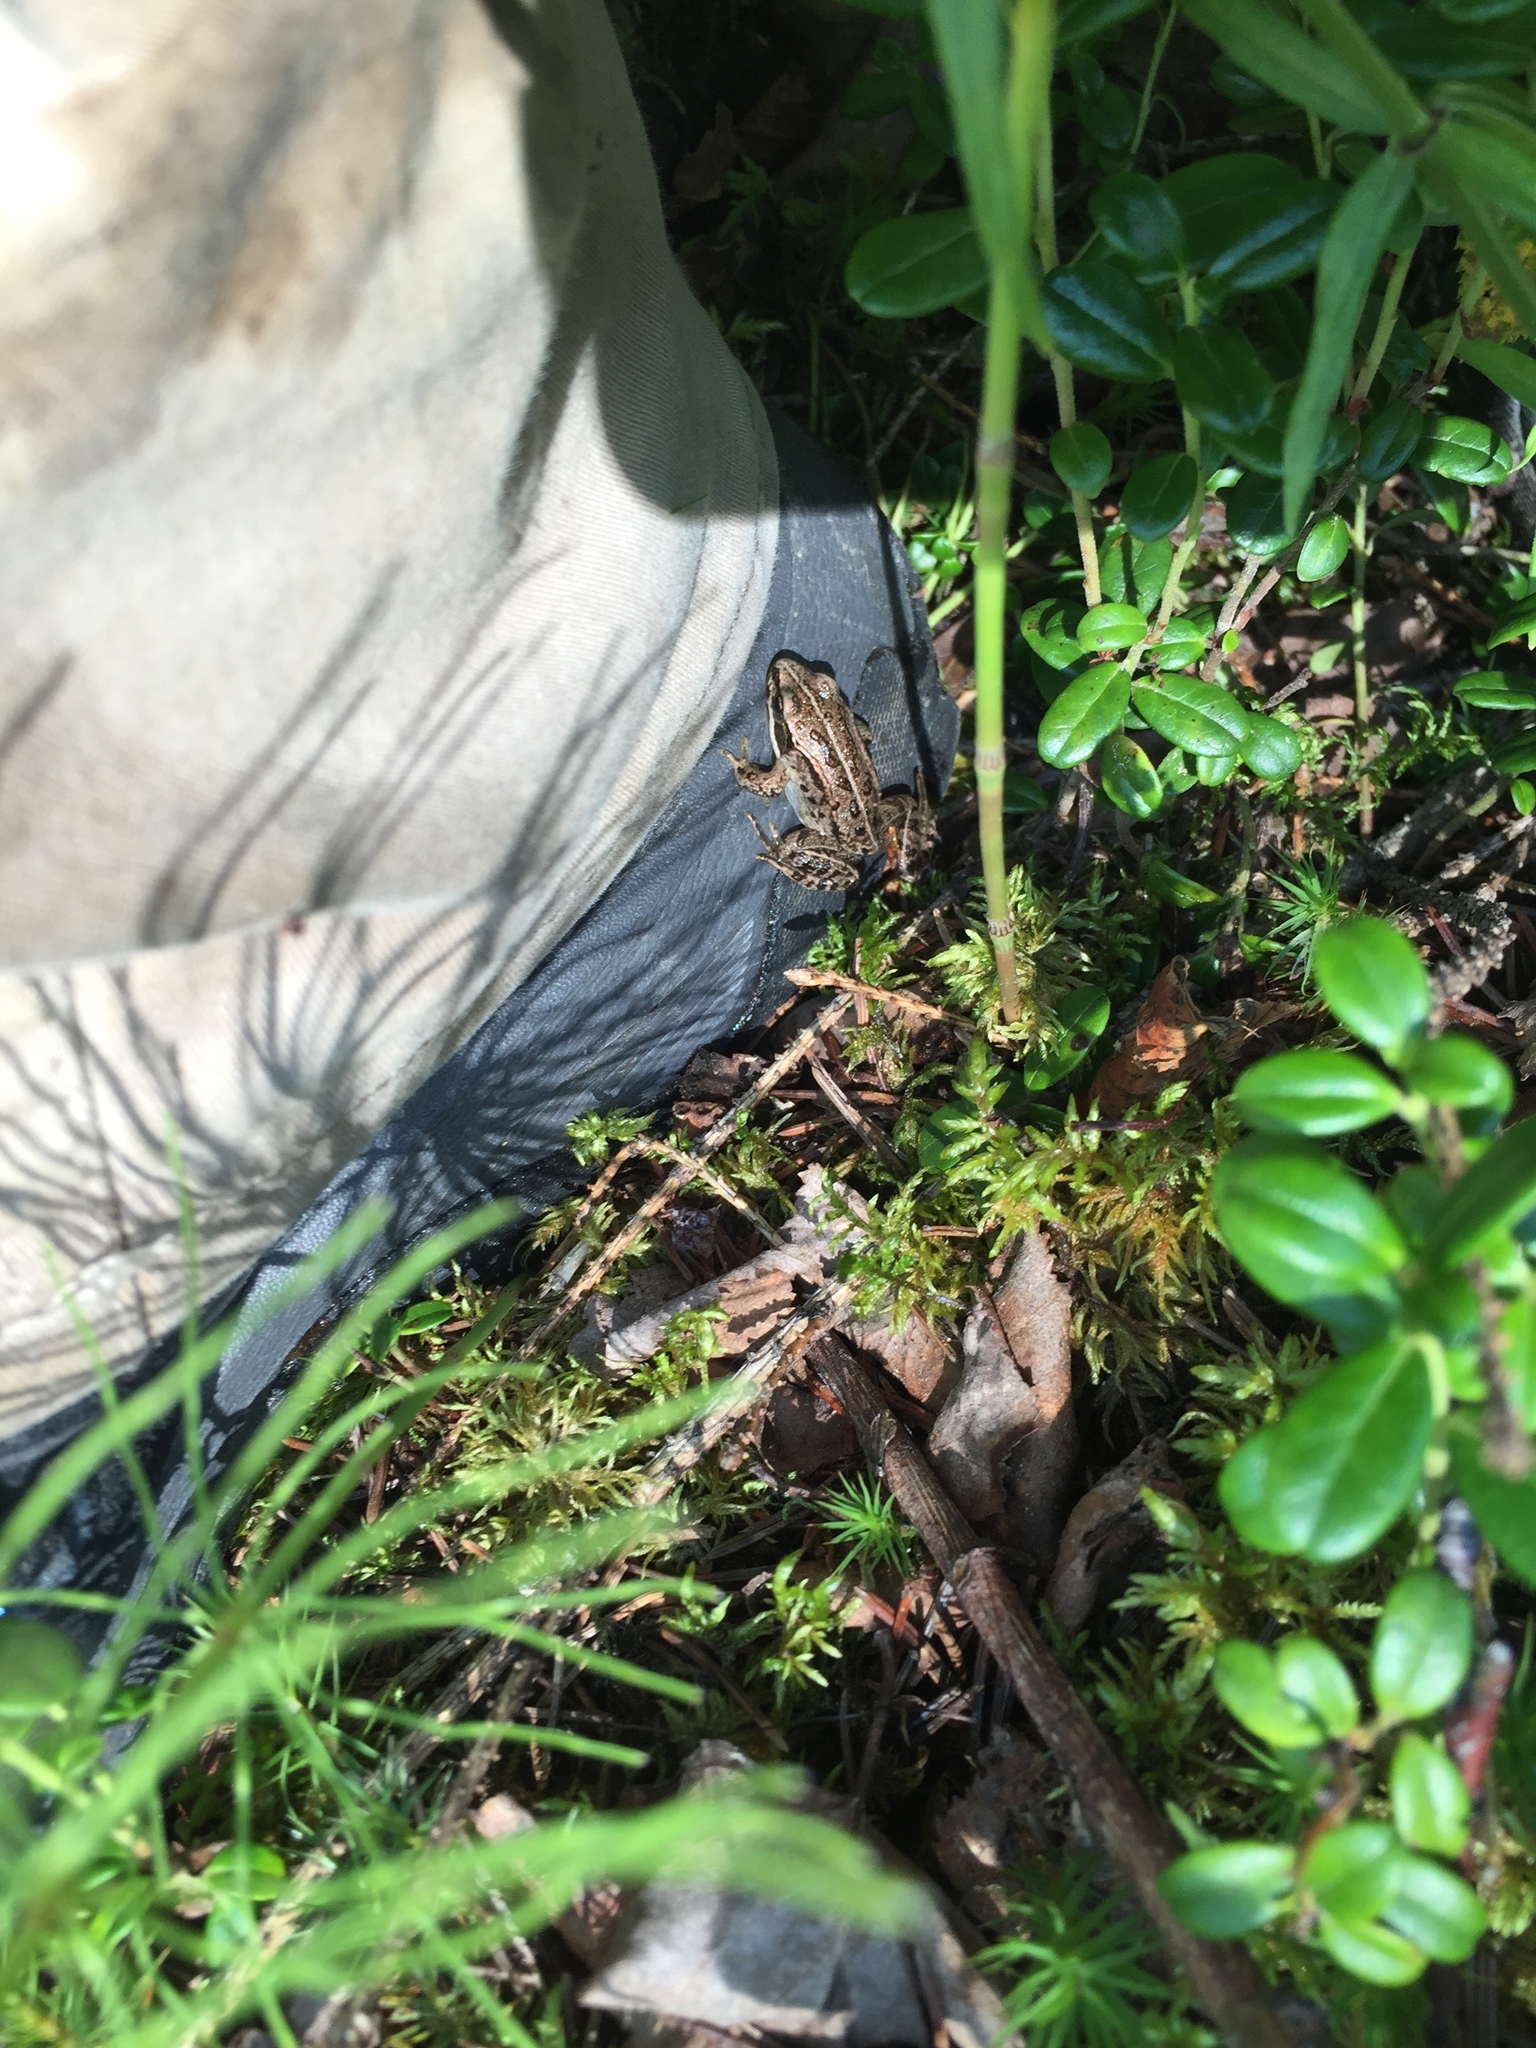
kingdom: Animalia
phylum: Chordata
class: Amphibia
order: Anura
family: Ranidae
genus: Lithobates
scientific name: Lithobates sylvaticus
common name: Wood frog
